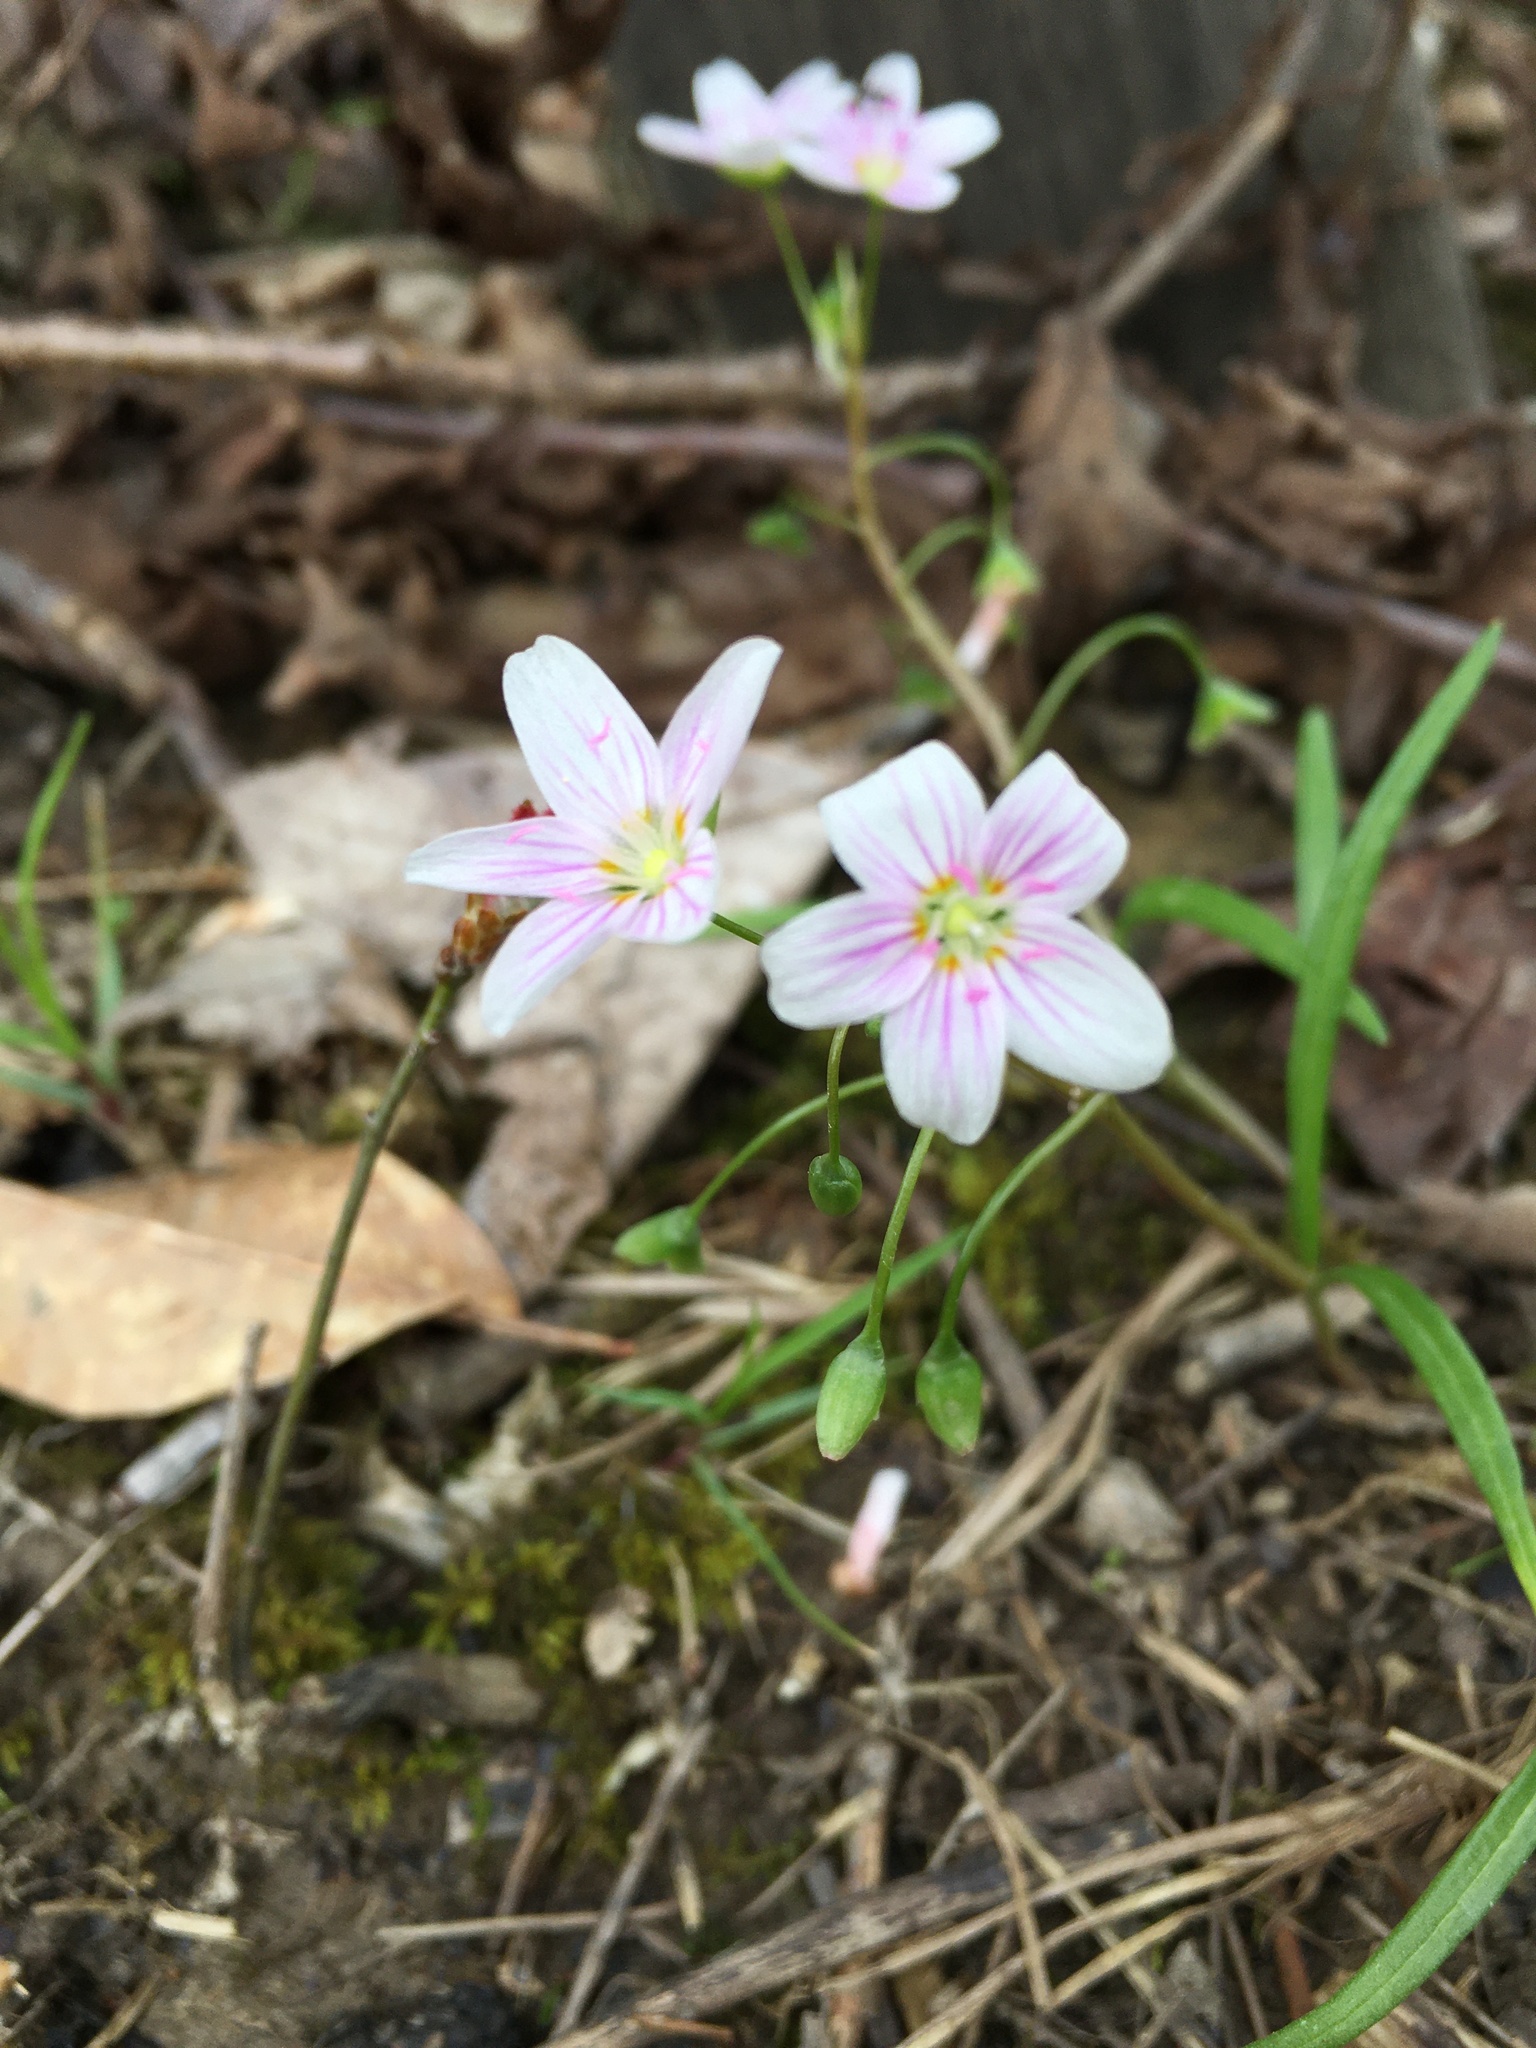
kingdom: Plantae
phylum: Tracheophyta
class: Magnoliopsida
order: Caryophyllales
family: Montiaceae
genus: Claytonia
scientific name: Claytonia virginica
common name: Virginia springbeauty
